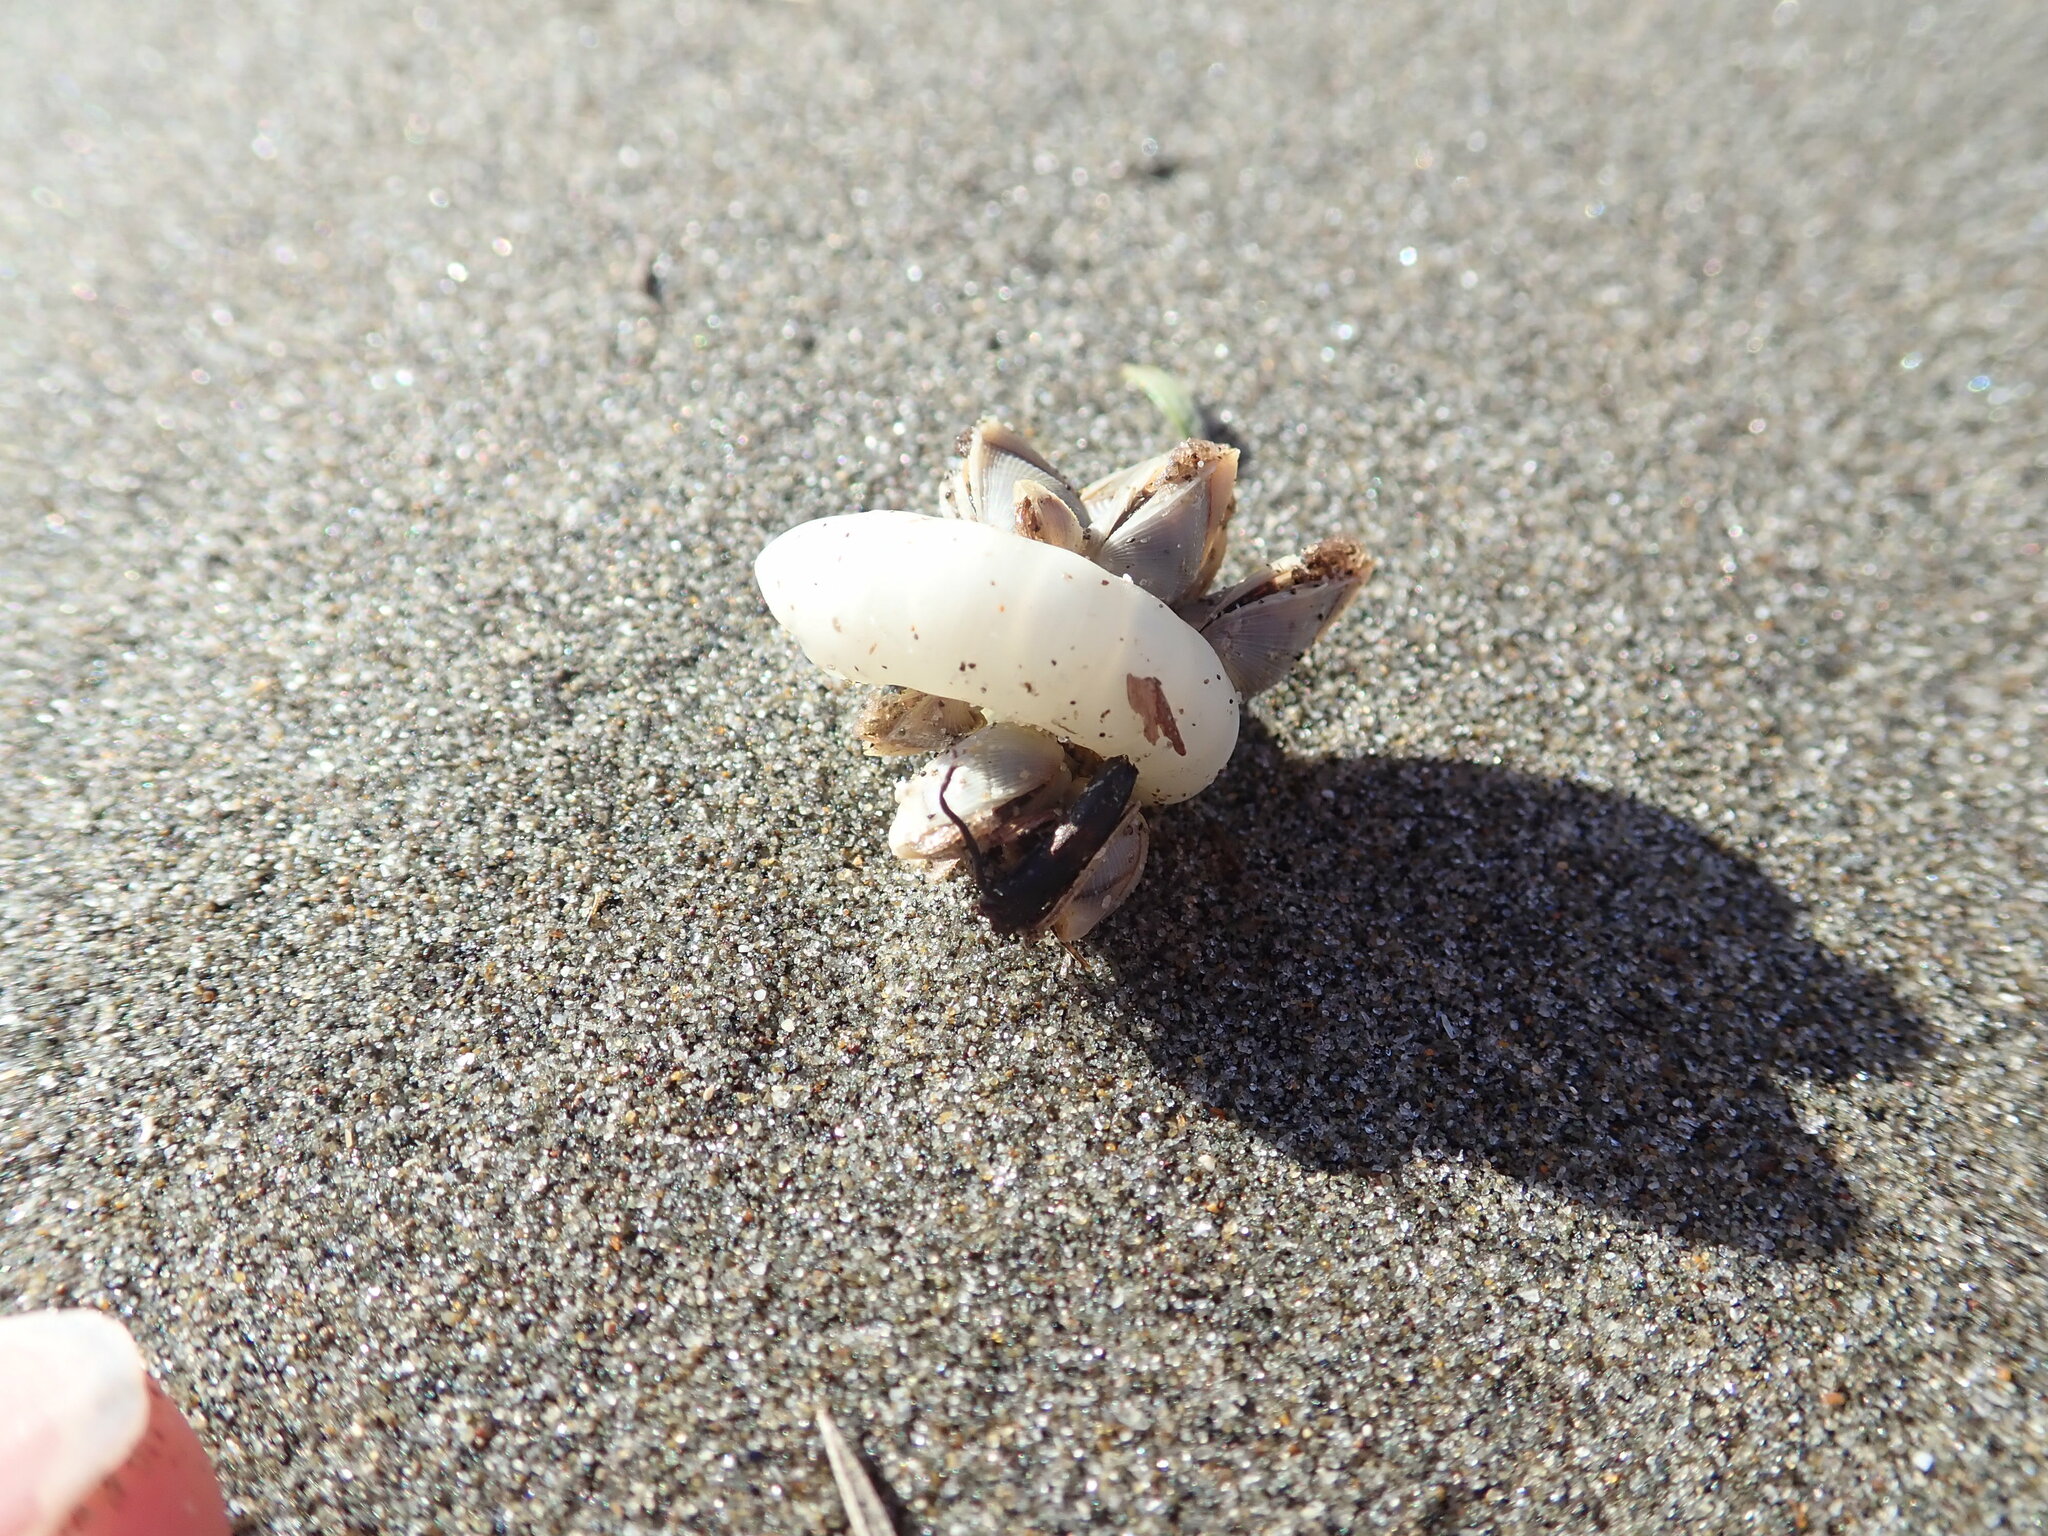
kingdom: Animalia
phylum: Arthropoda
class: Maxillopoda
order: Pedunculata
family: Lepadidae
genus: Lepas
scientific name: Lepas pectinata
